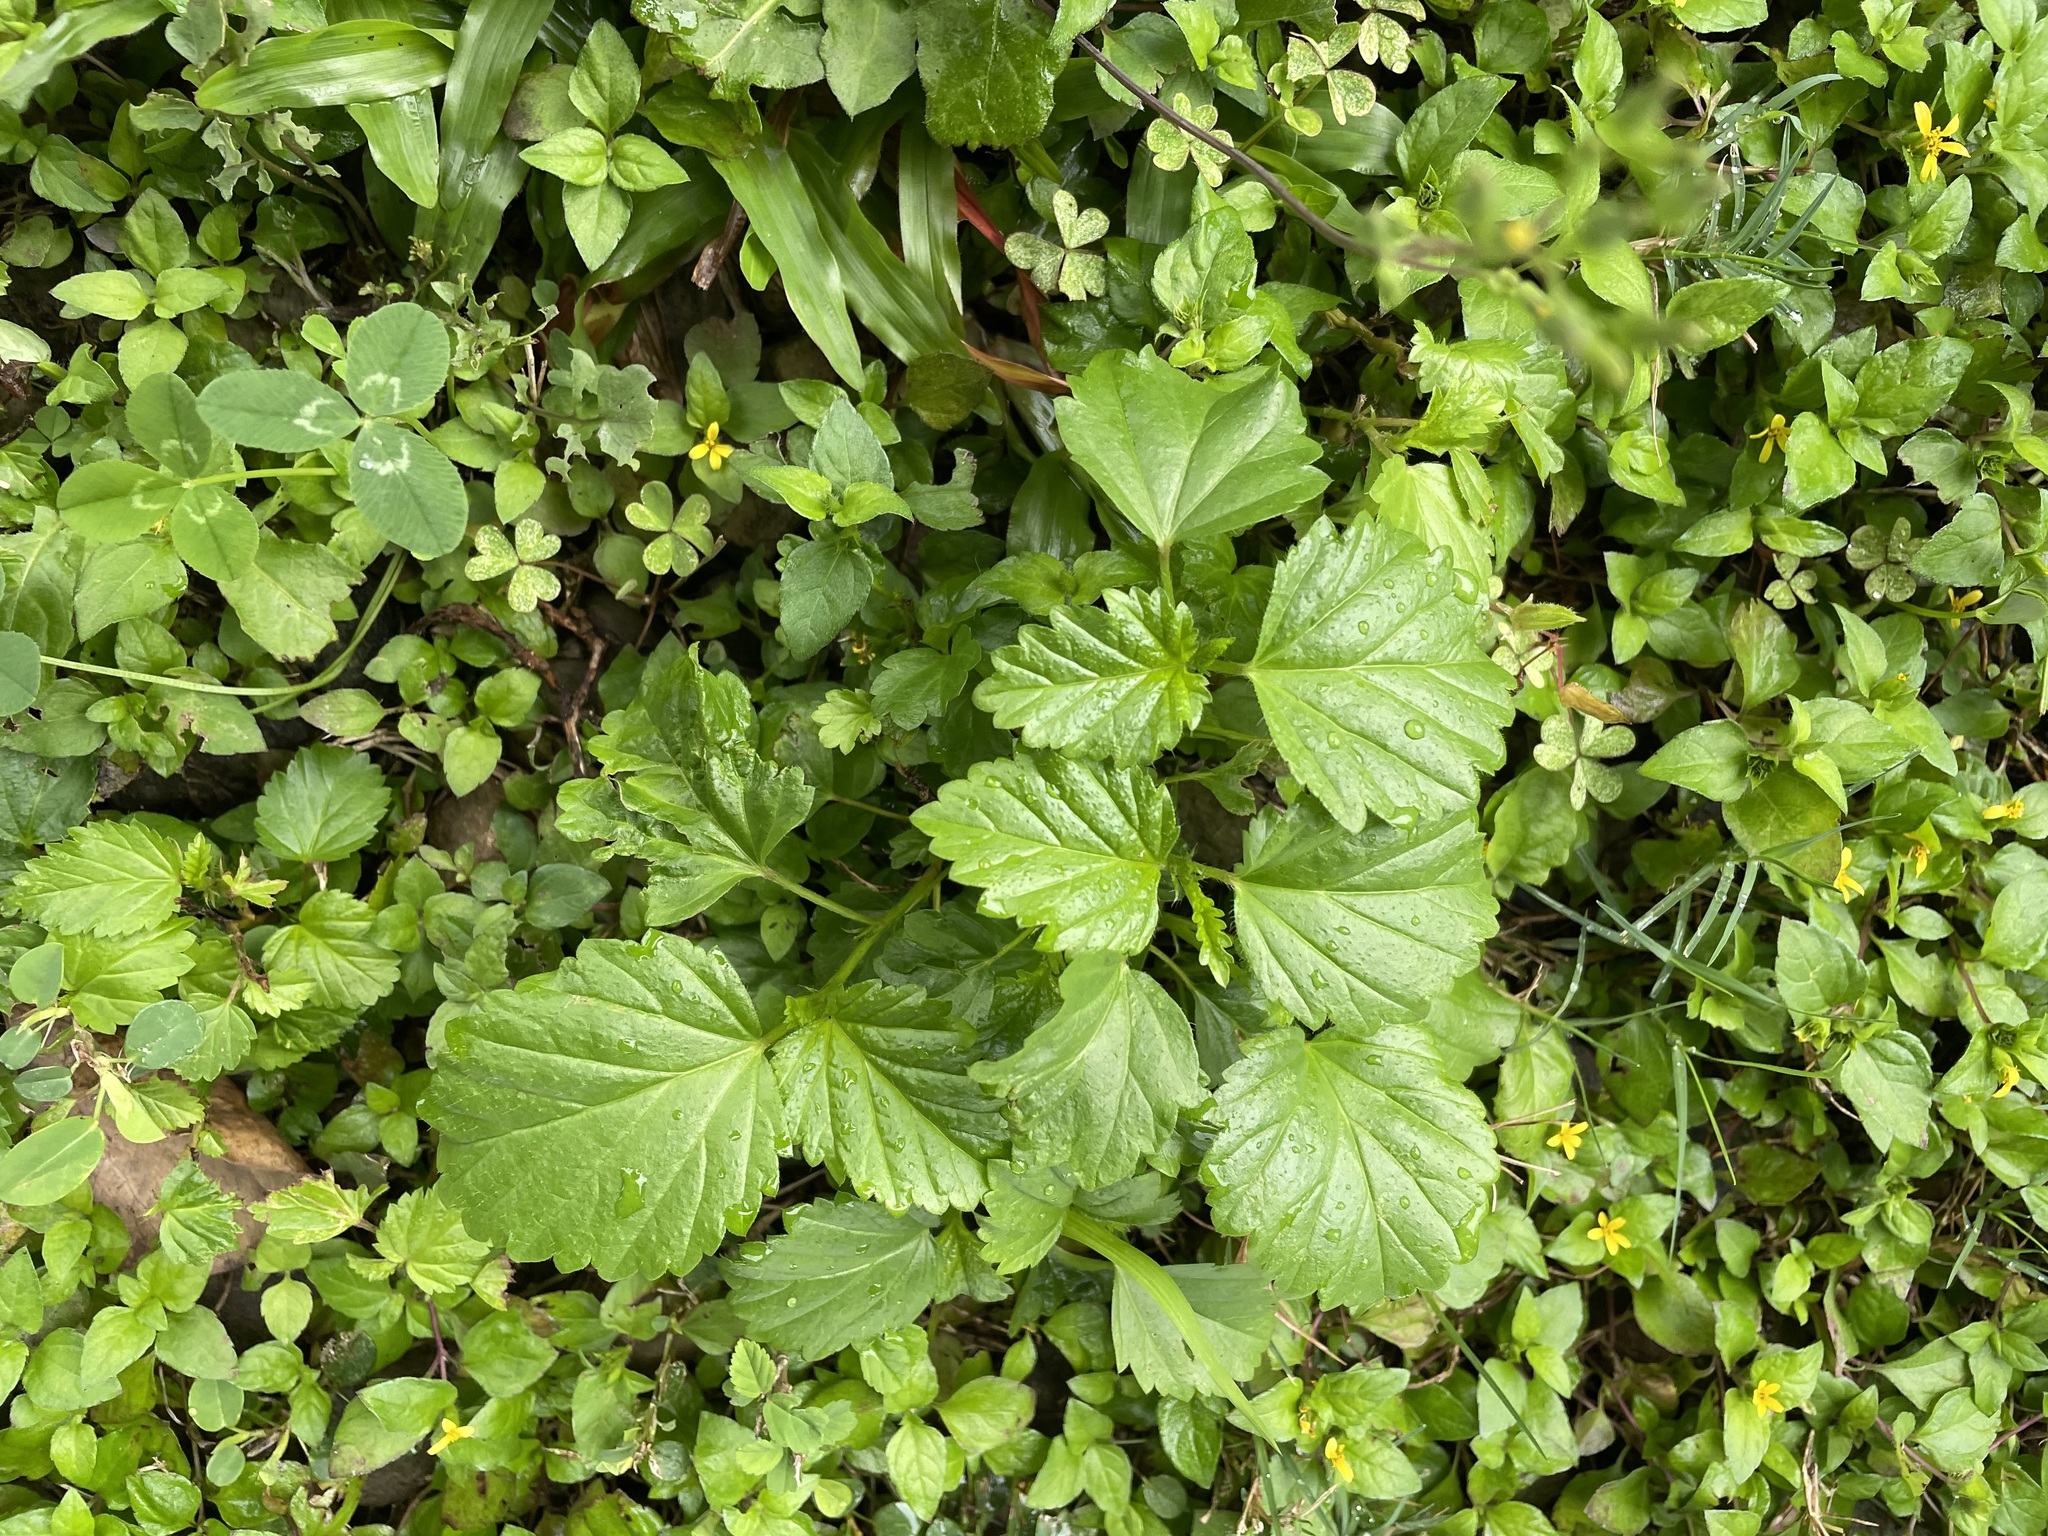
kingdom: Plantae
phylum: Tracheophyta
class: Magnoliopsida
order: Malvales
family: Malvaceae
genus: Malvastrum
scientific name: Malvastrum coromandelianum
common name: Threelobe false mallow
